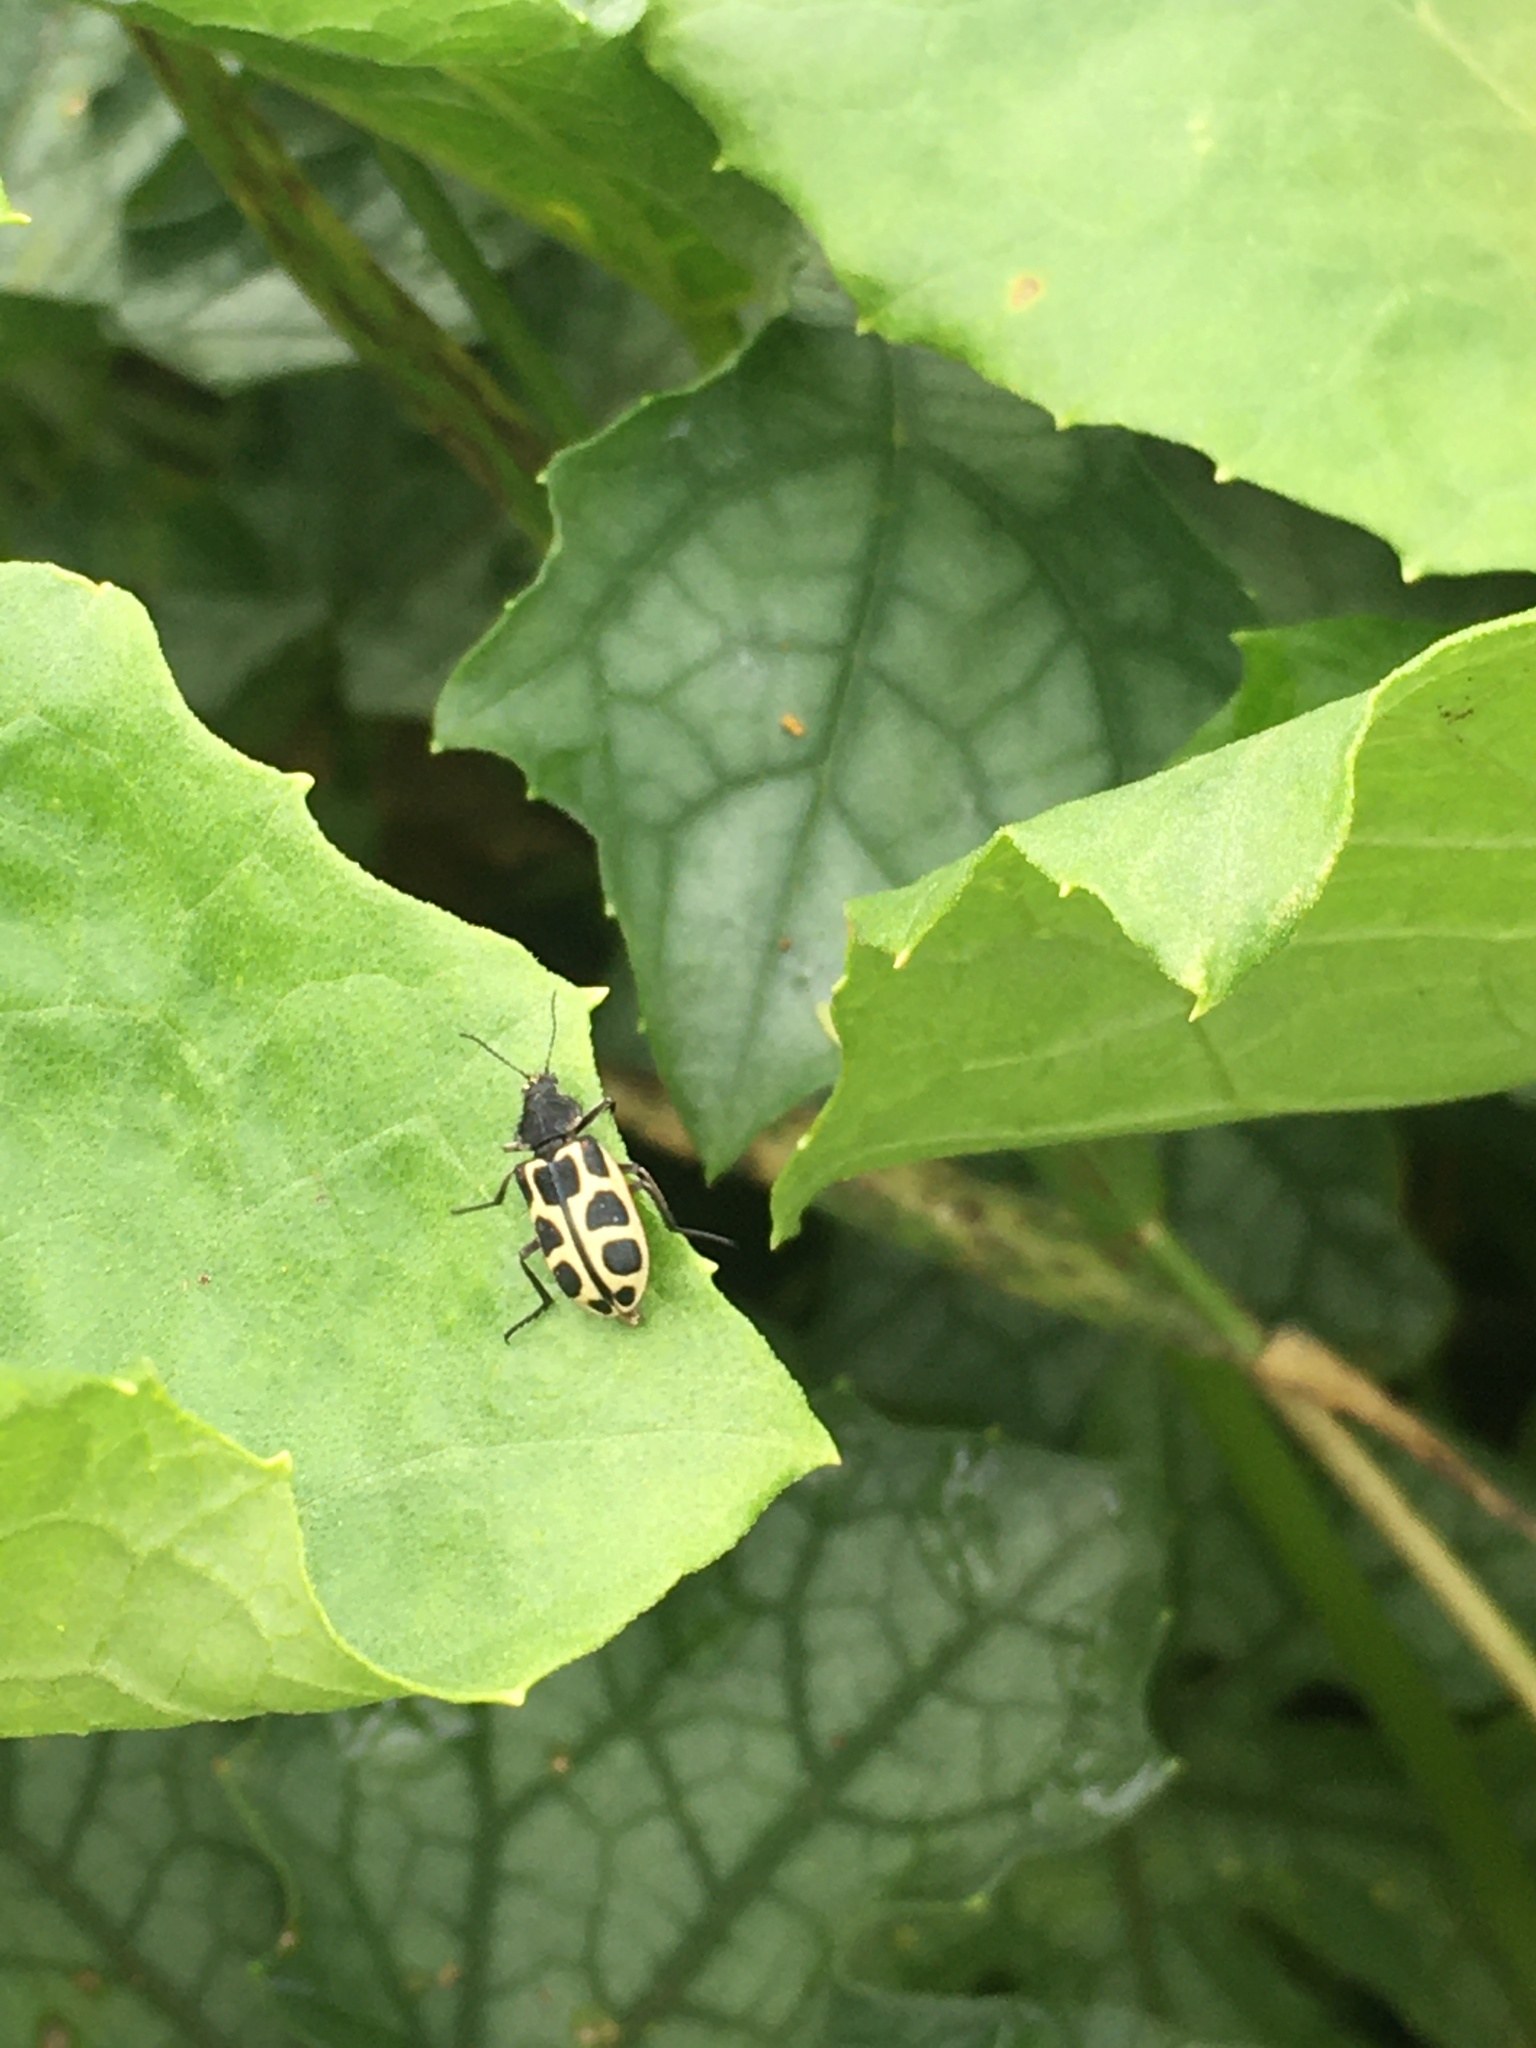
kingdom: Animalia
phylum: Arthropoda
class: Insecta
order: Coleoptera
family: Melyridae
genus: Astylus
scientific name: Astylus
